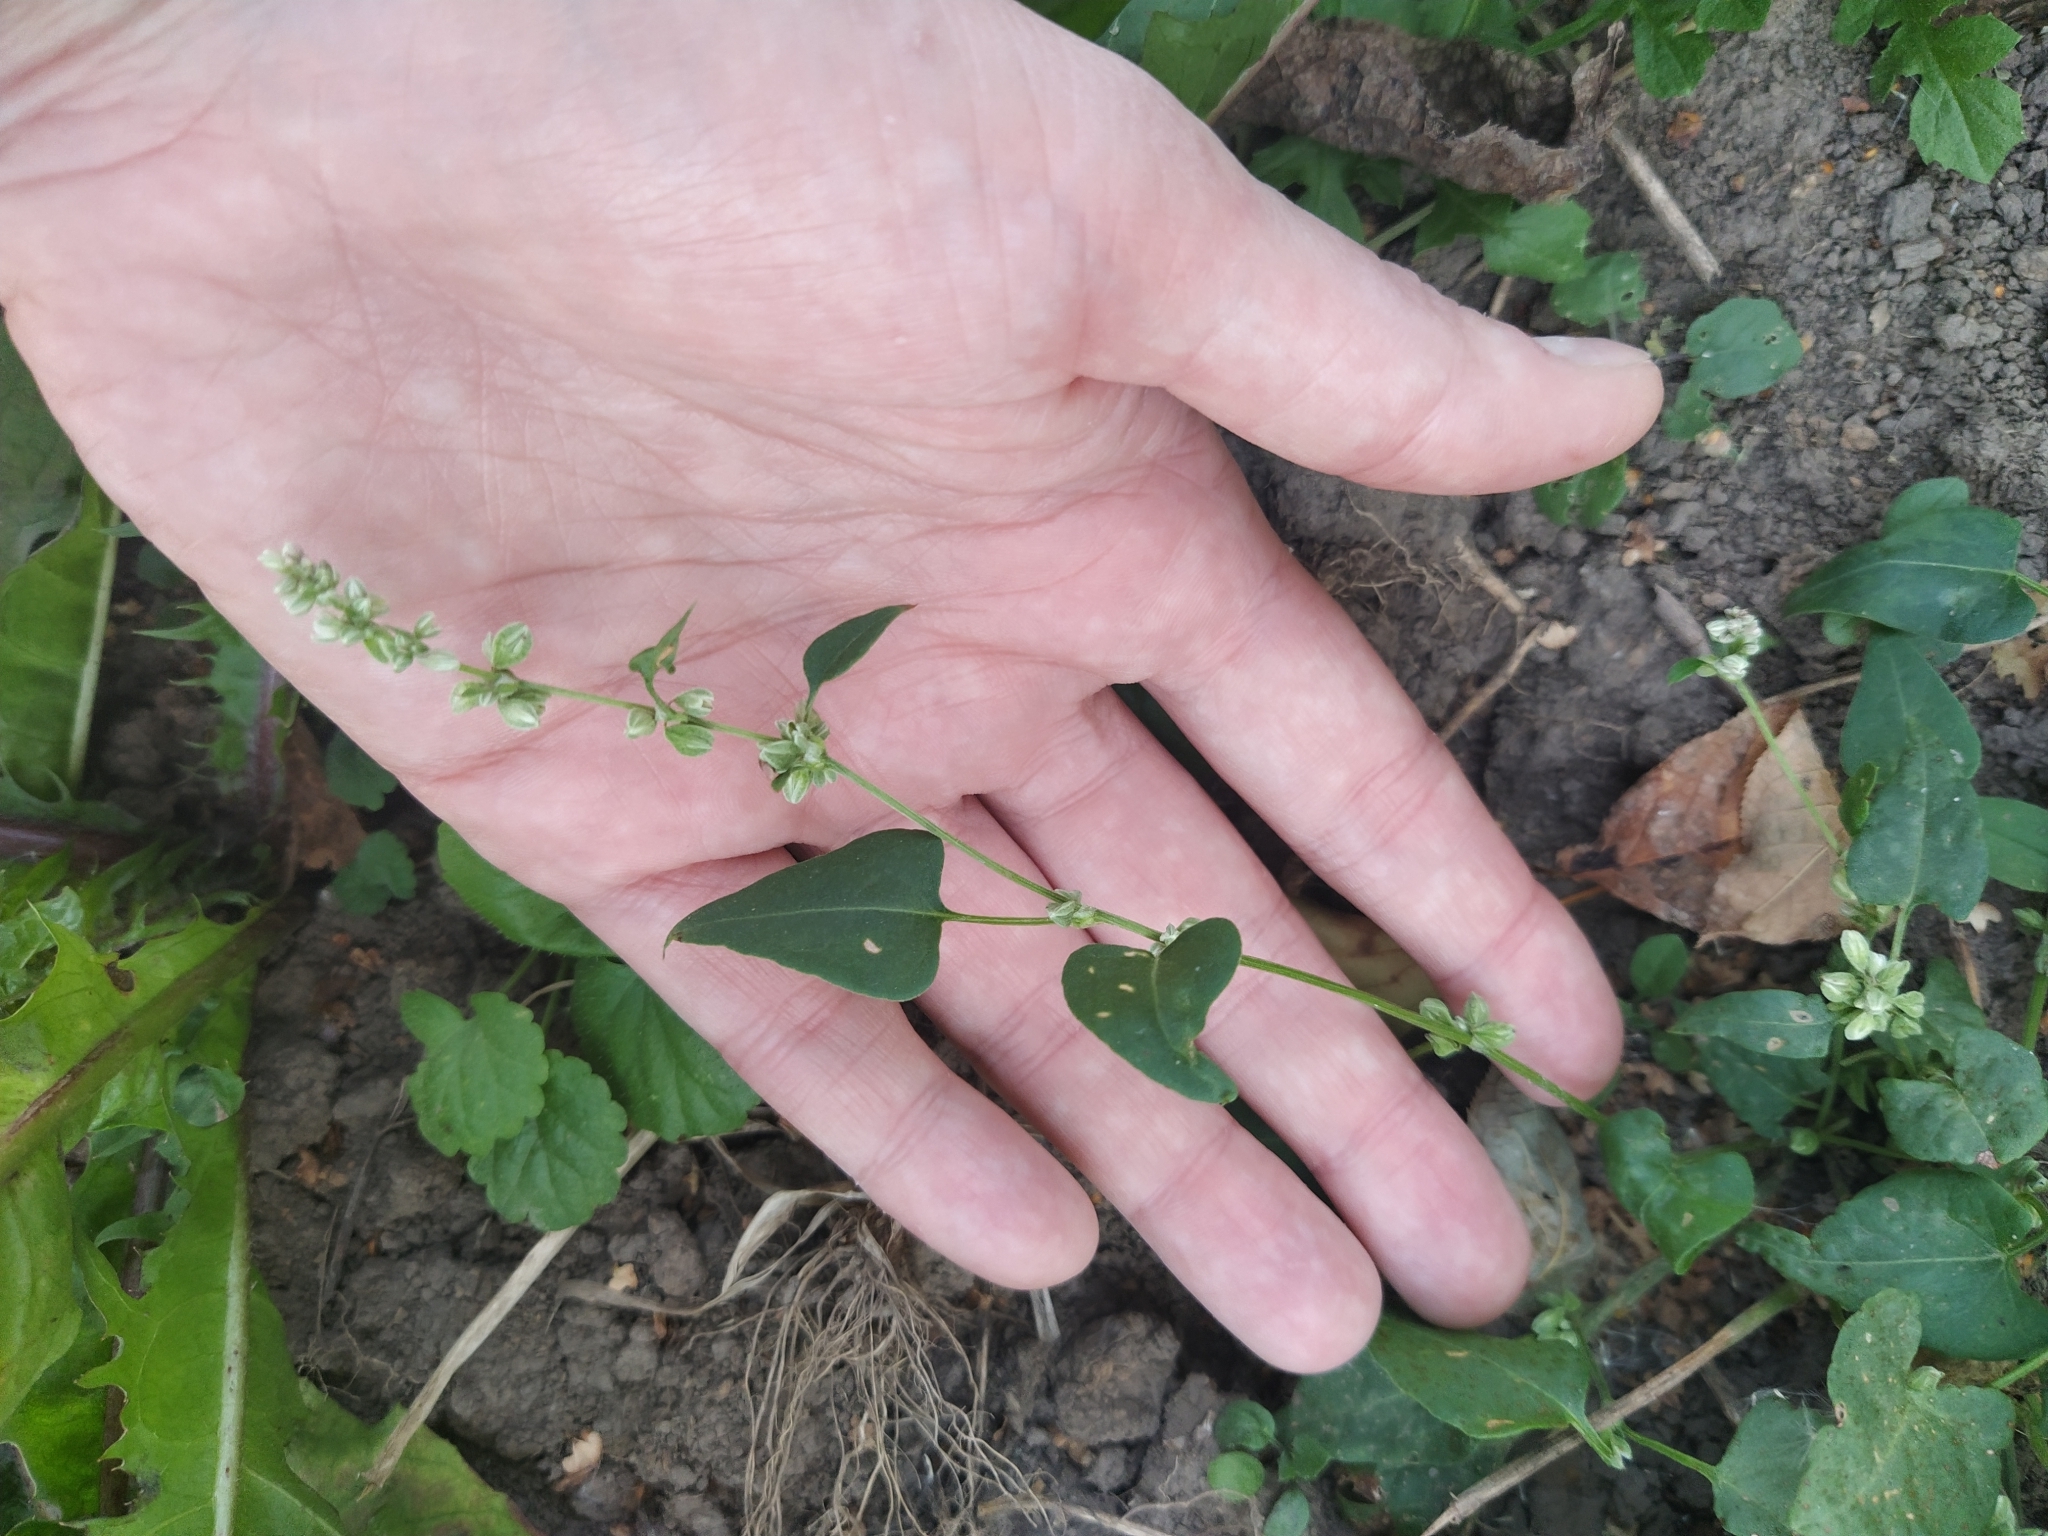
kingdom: Plantae
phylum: Tracheophyta
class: Magnoliopsida
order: Caryophyllales
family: Polygonaceae
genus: Fallopia
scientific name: Fallopia convolvulus
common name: Black bindweed
